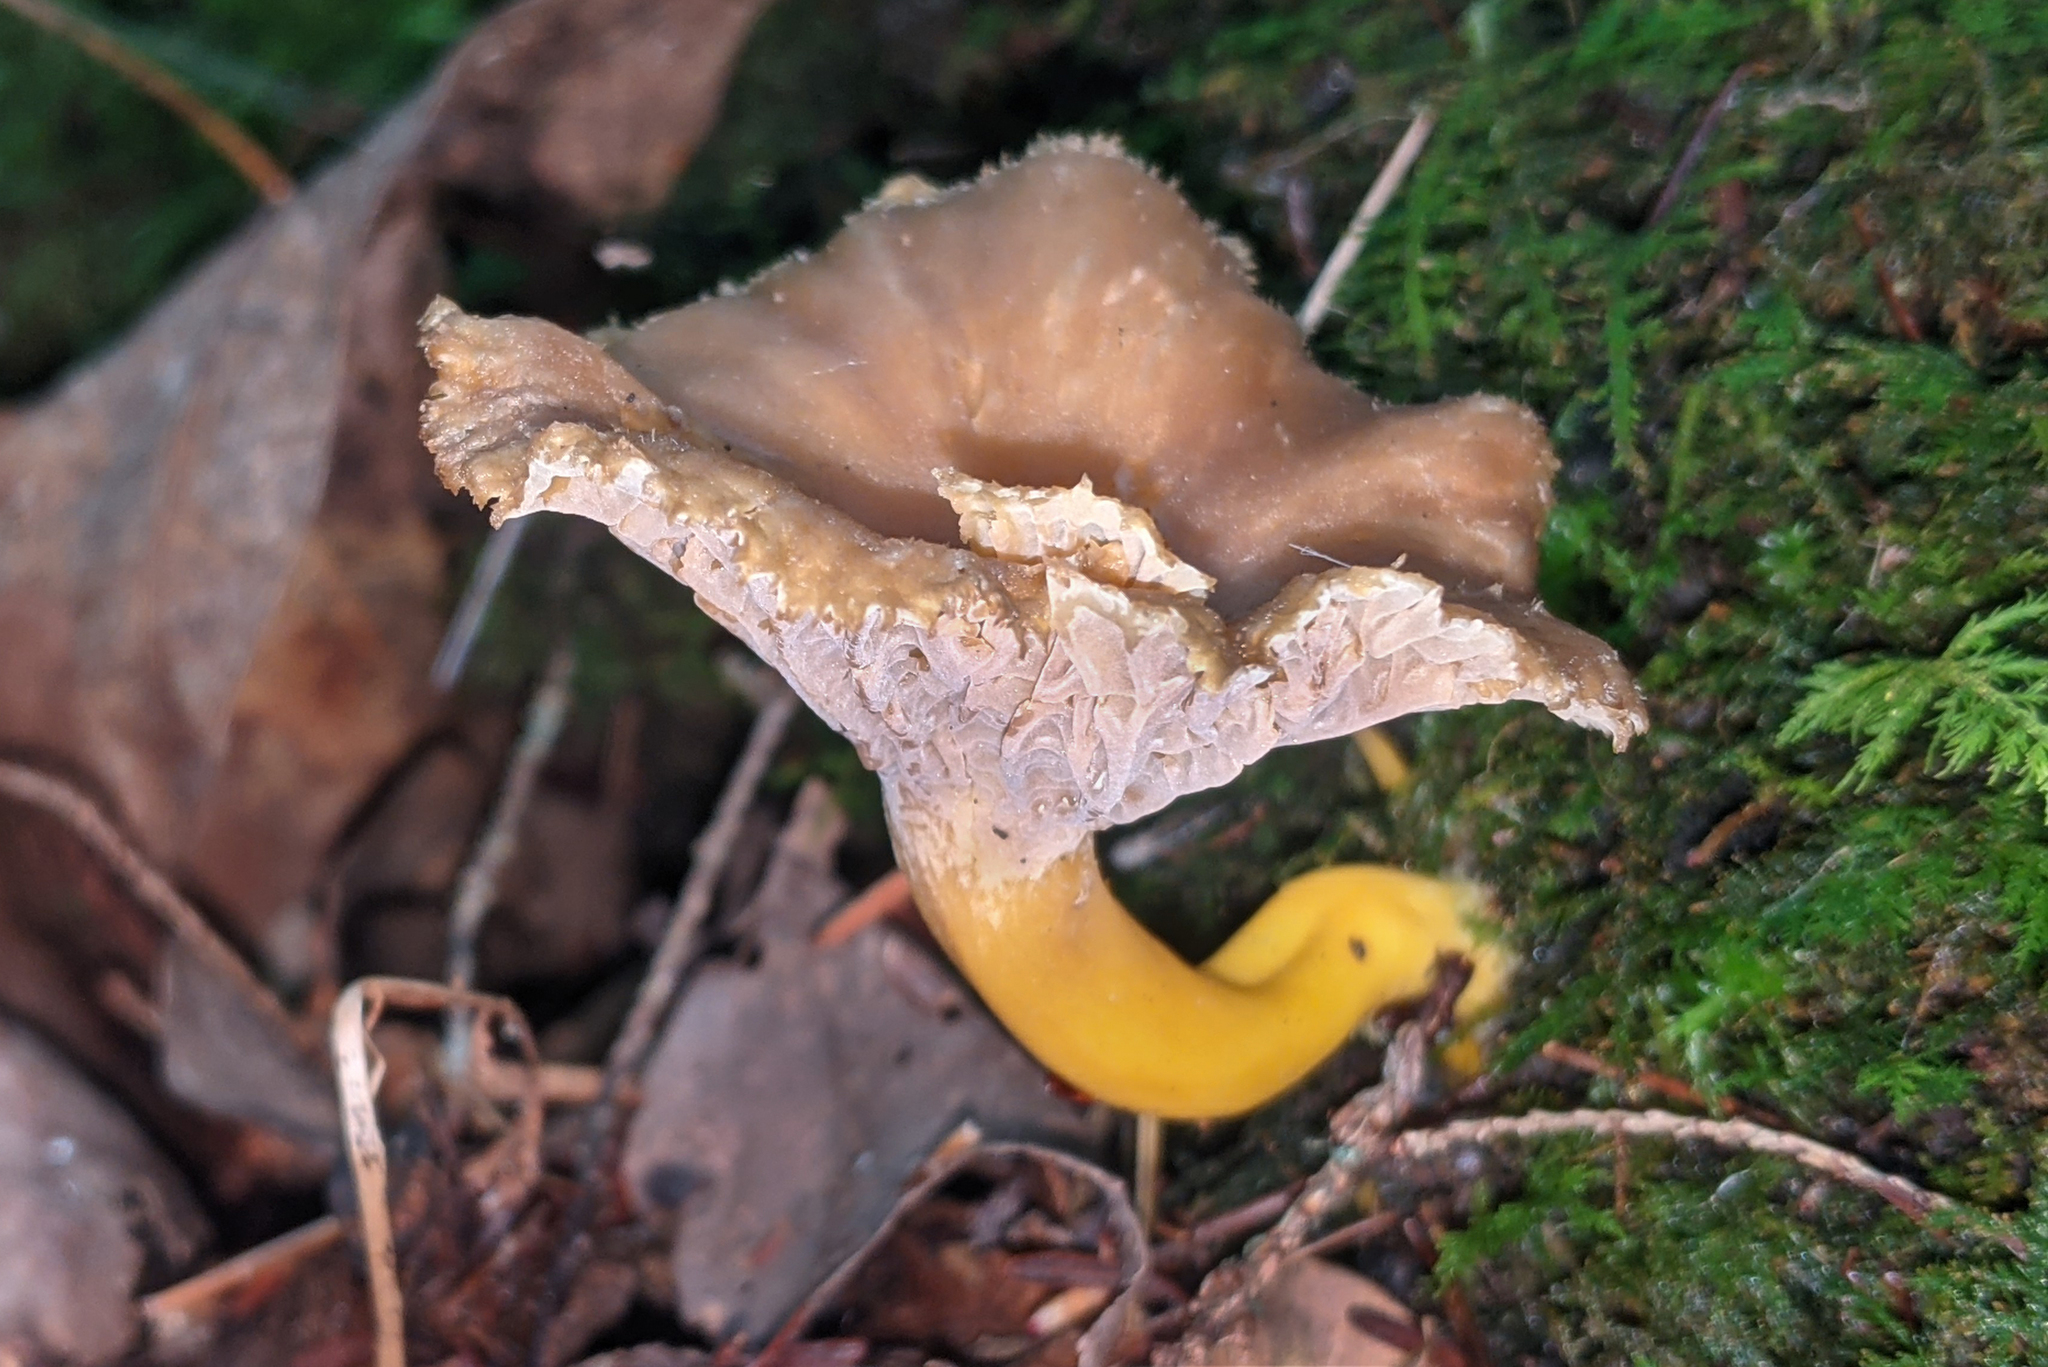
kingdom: Fungi
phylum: Basidiomycota
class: Agaricomycetes
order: Cantharellales
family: Hydnaceae
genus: Craterellus
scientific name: Craterellus tubaeformis
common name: Yellowfoot
